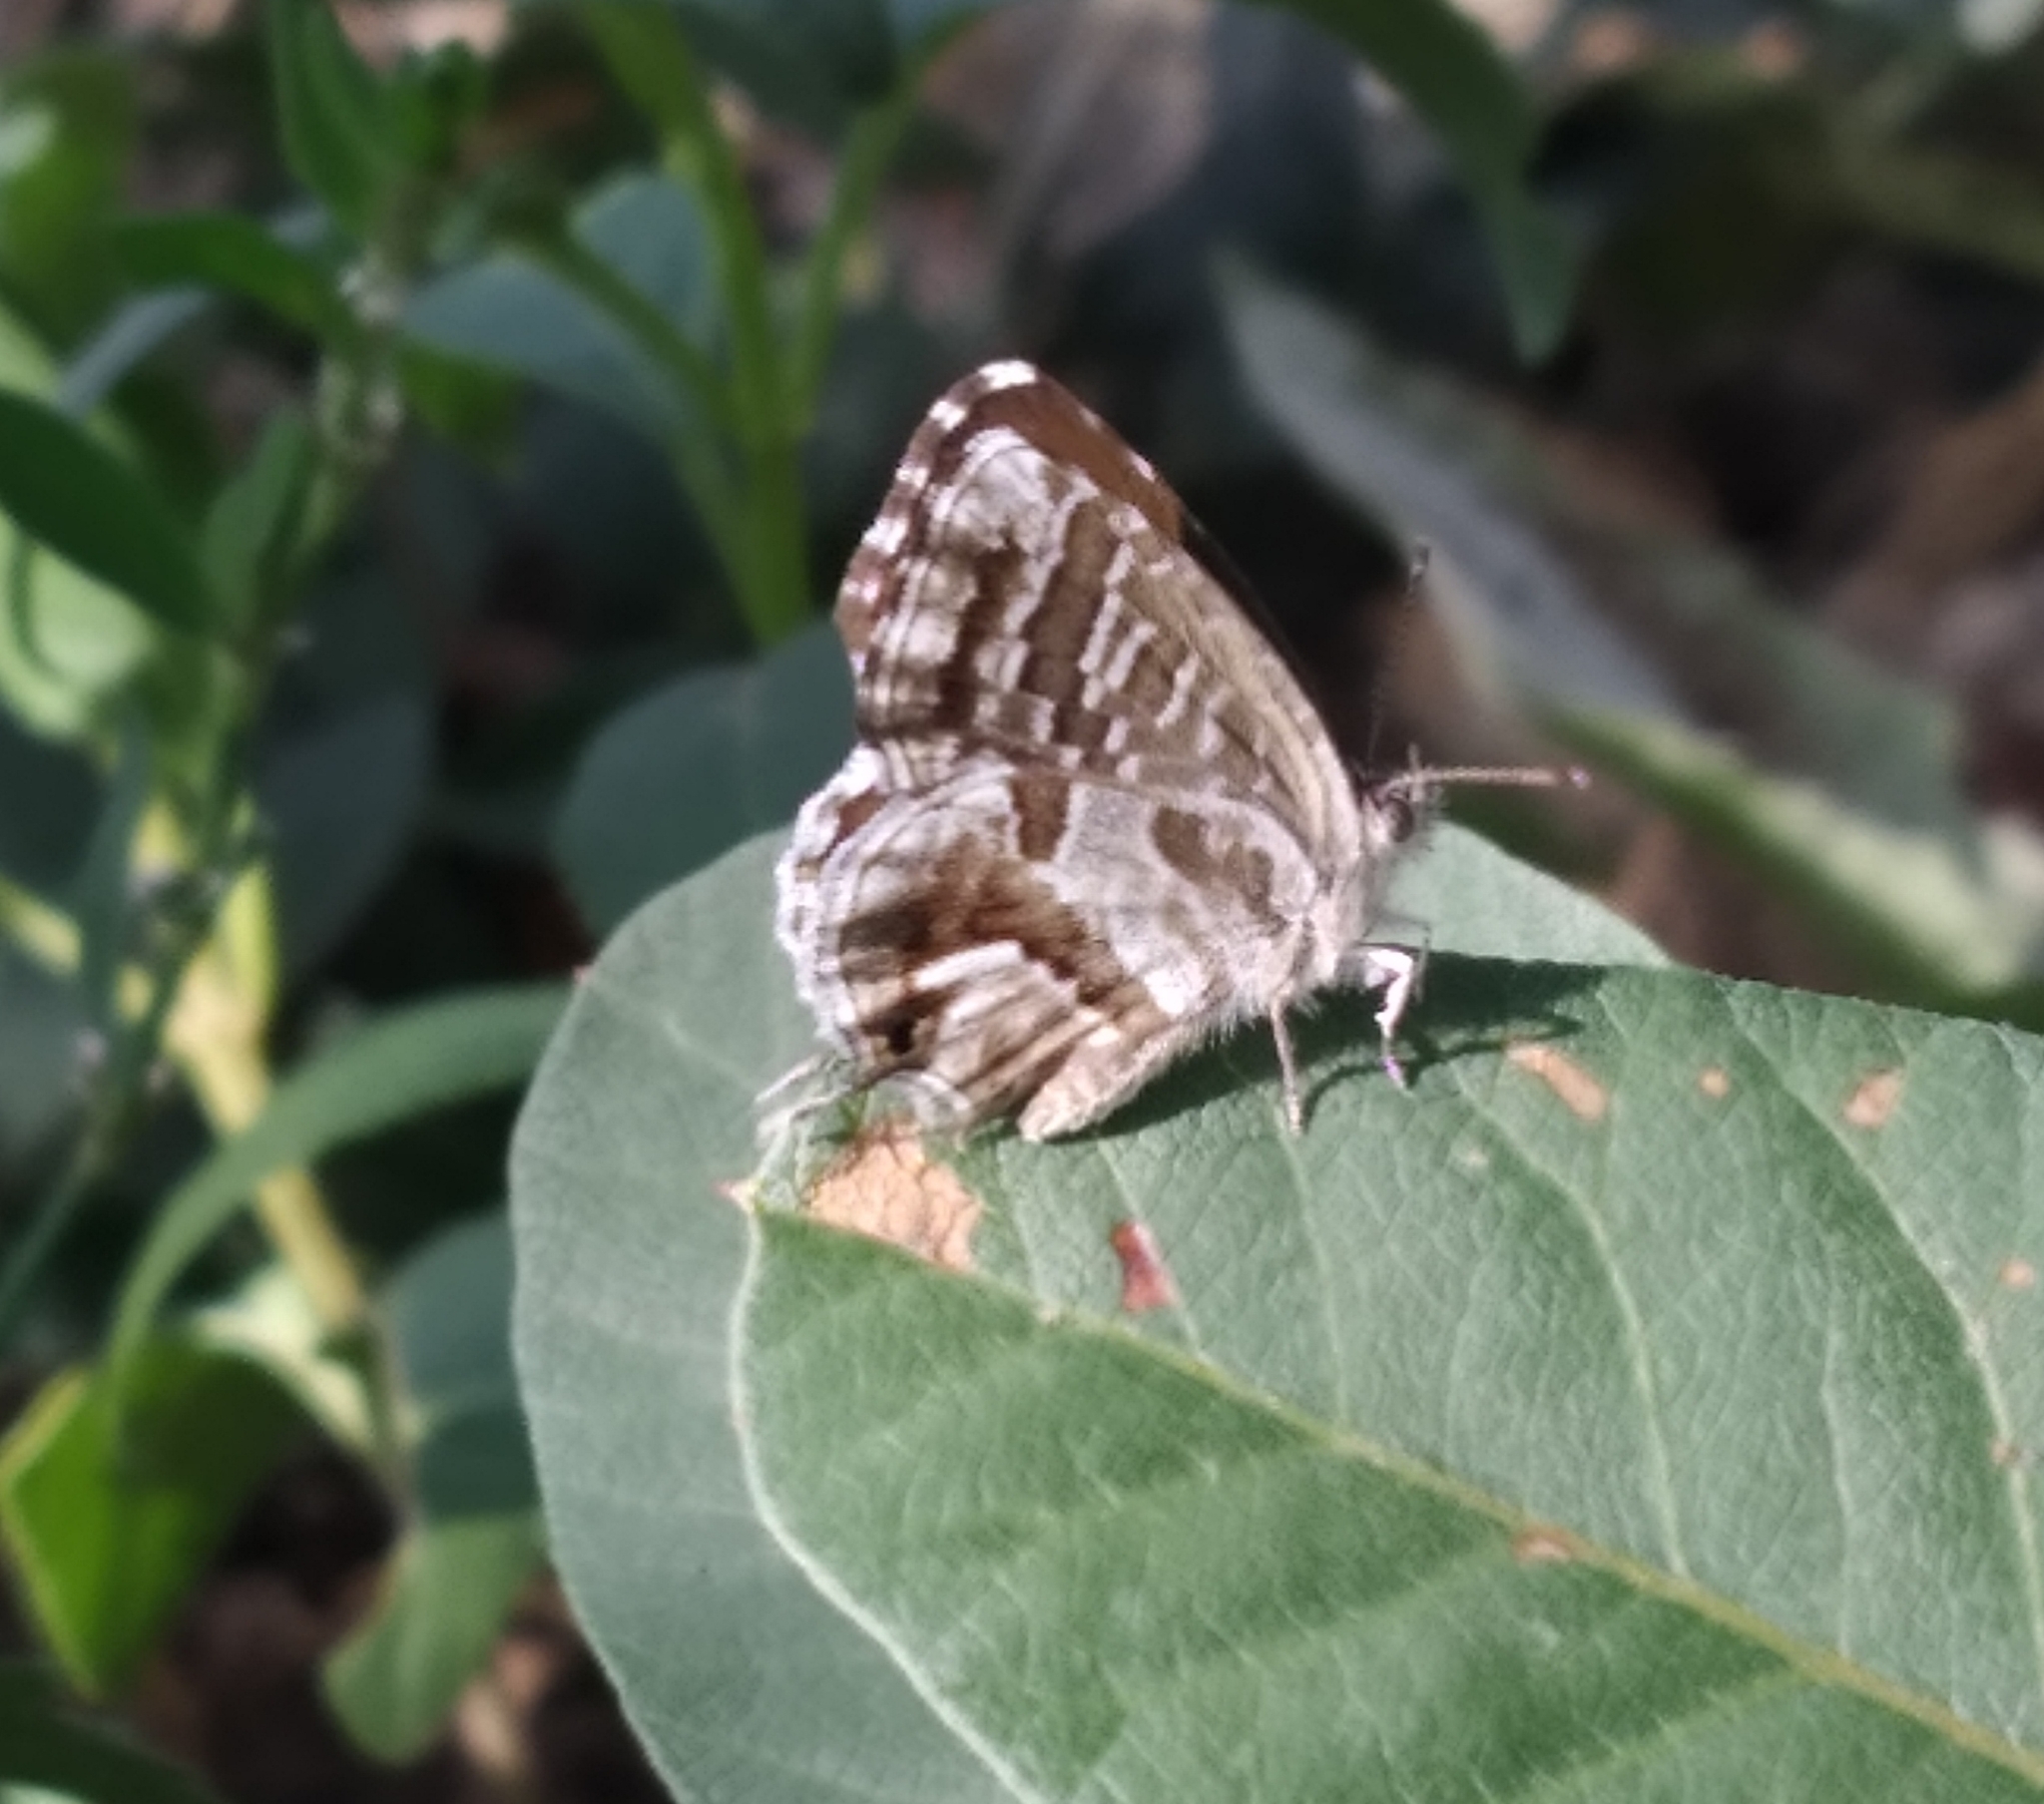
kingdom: Animalia
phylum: Arthropoda
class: Insecta
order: Lepidoptera
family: Lycaenidae
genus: Cacyreus
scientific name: Cacyreus marshalli
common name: Geranium bronze
